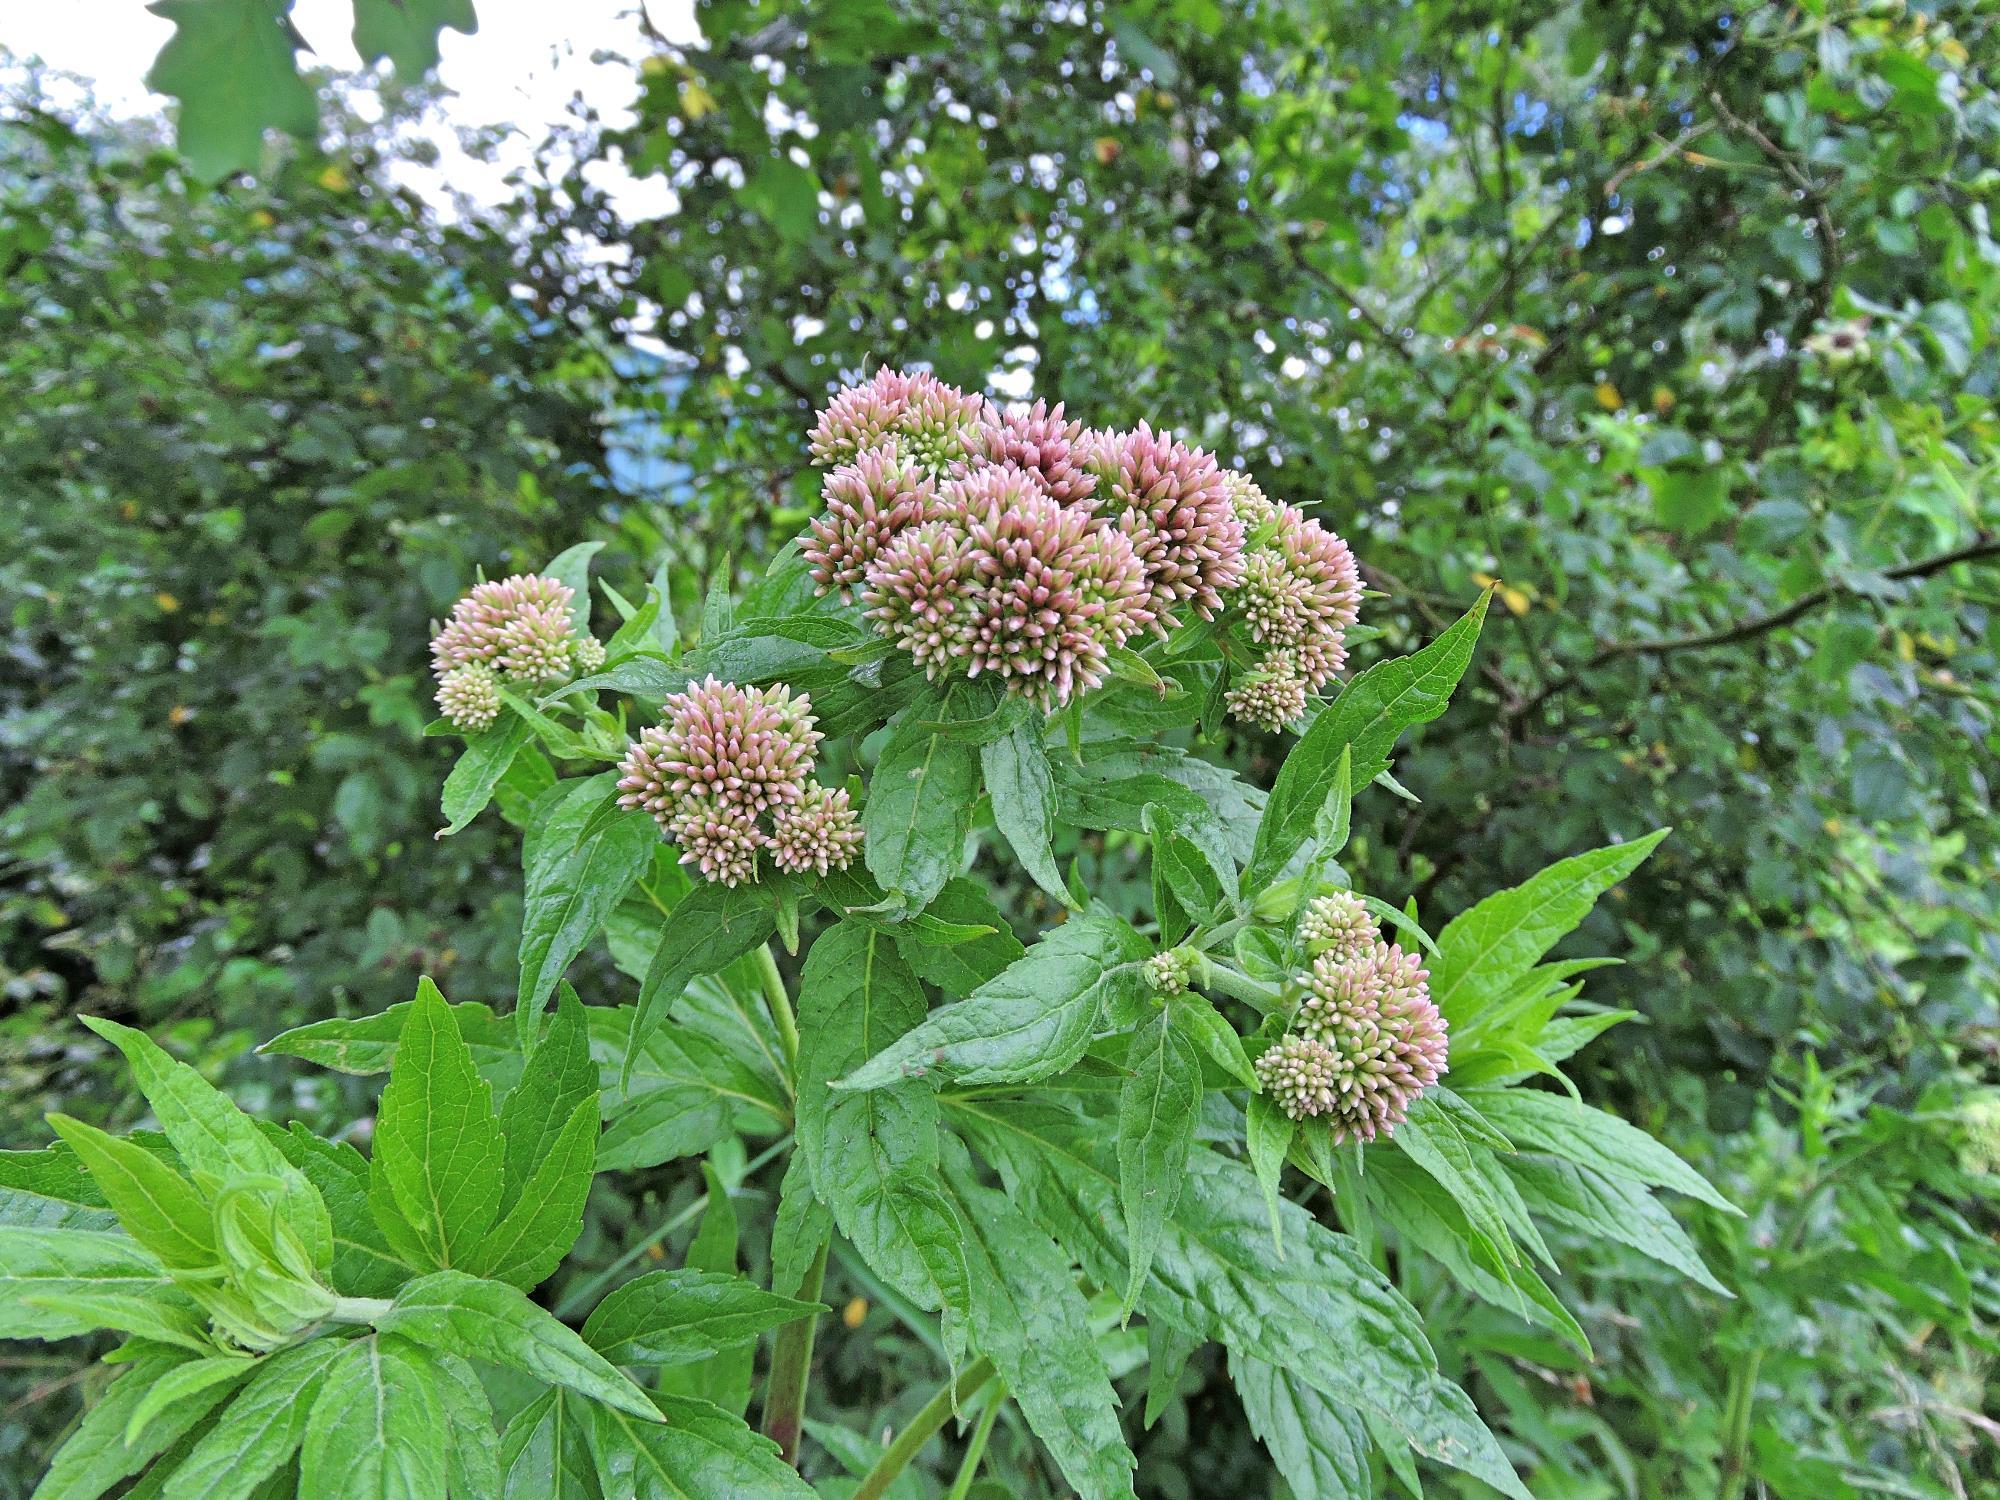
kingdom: Plantae
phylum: Tracheophyta
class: Magnoliopsida
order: Asterales
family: Asteraceae
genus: Eupatorium
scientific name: Eupatorium cannabinum
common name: Hemp-agrimony
